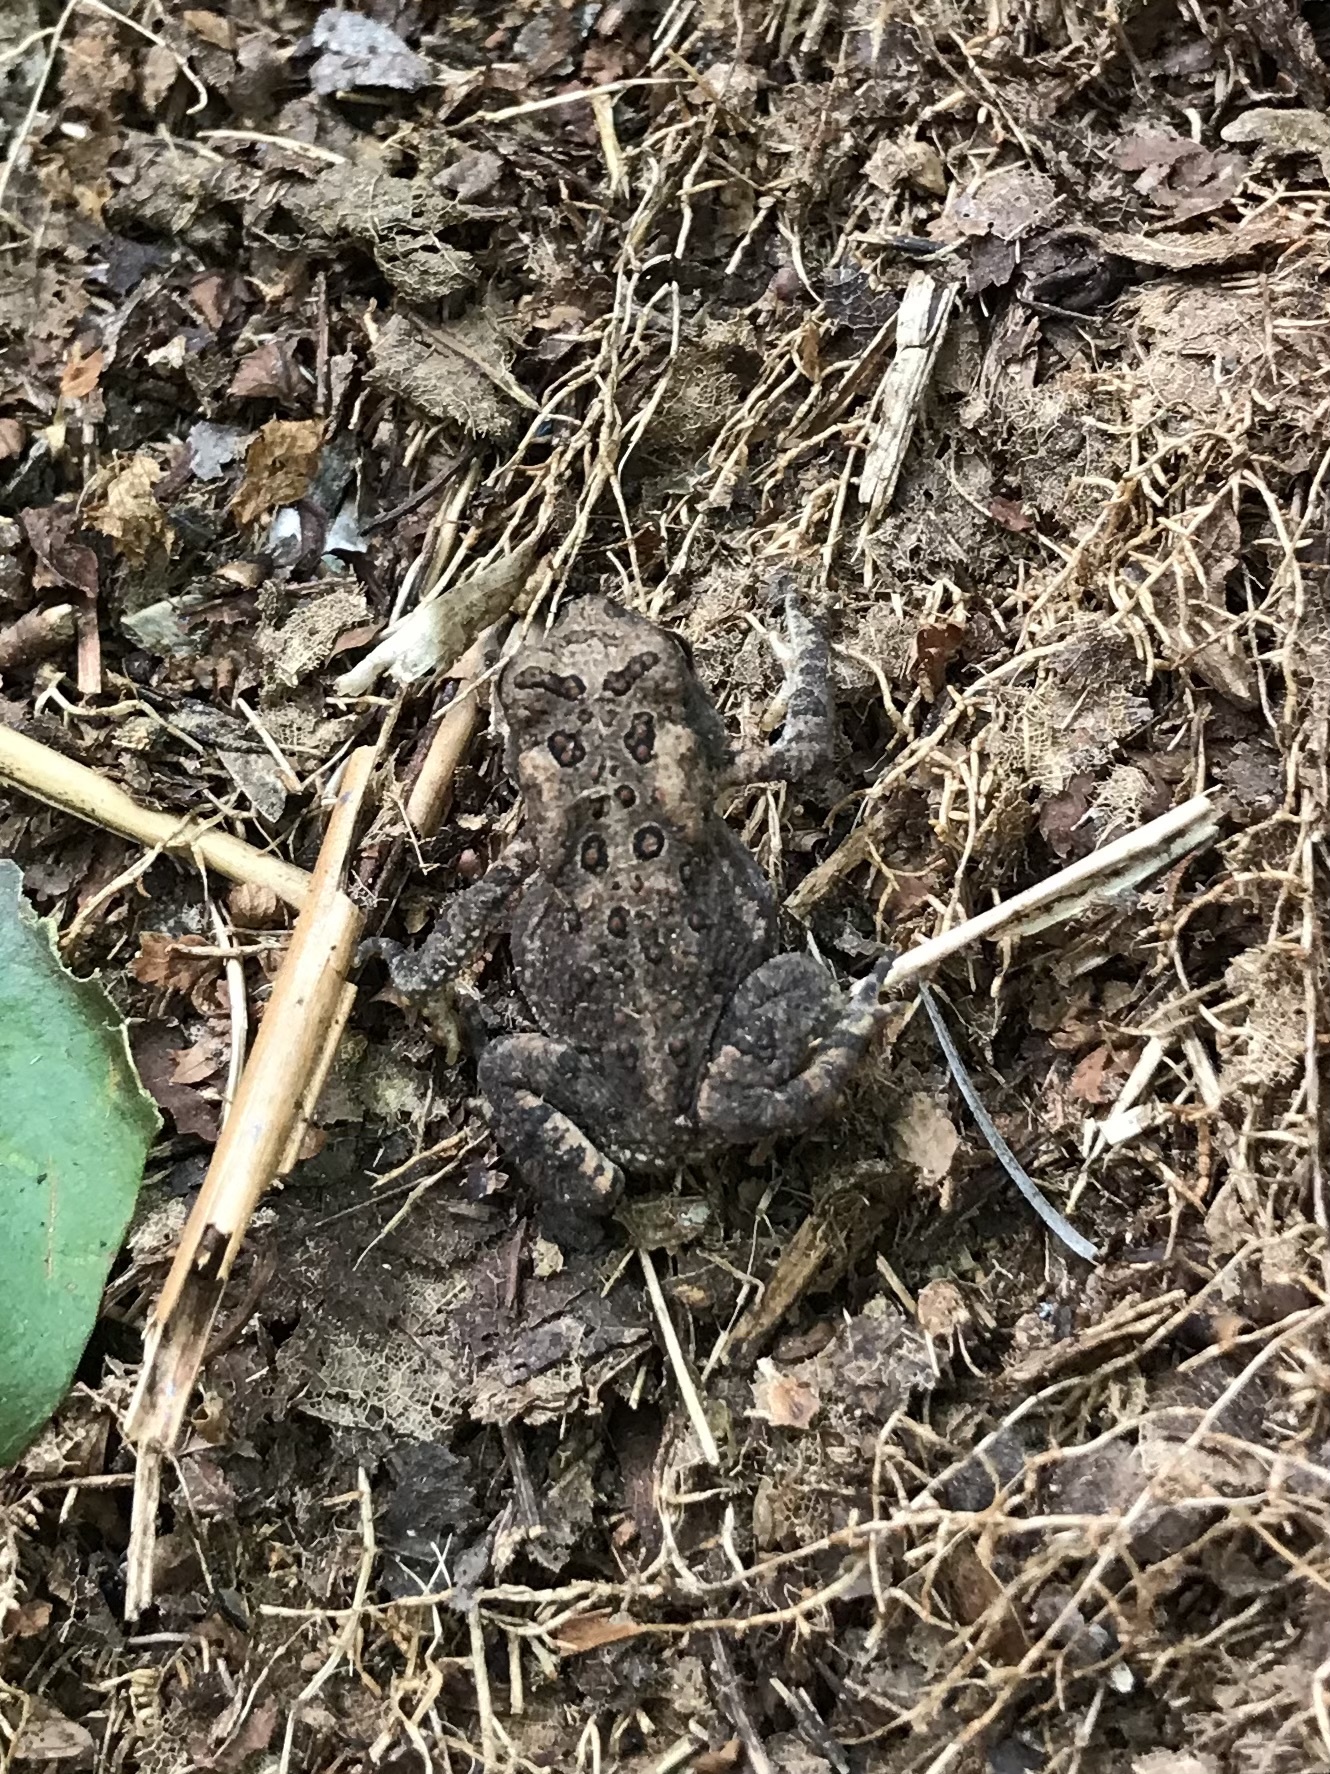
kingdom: Animalia
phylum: Chordata
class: Amphibia
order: Anura
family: Bufonidae
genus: Anaxyrus
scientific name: Anaxyrus americanus
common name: American toad
